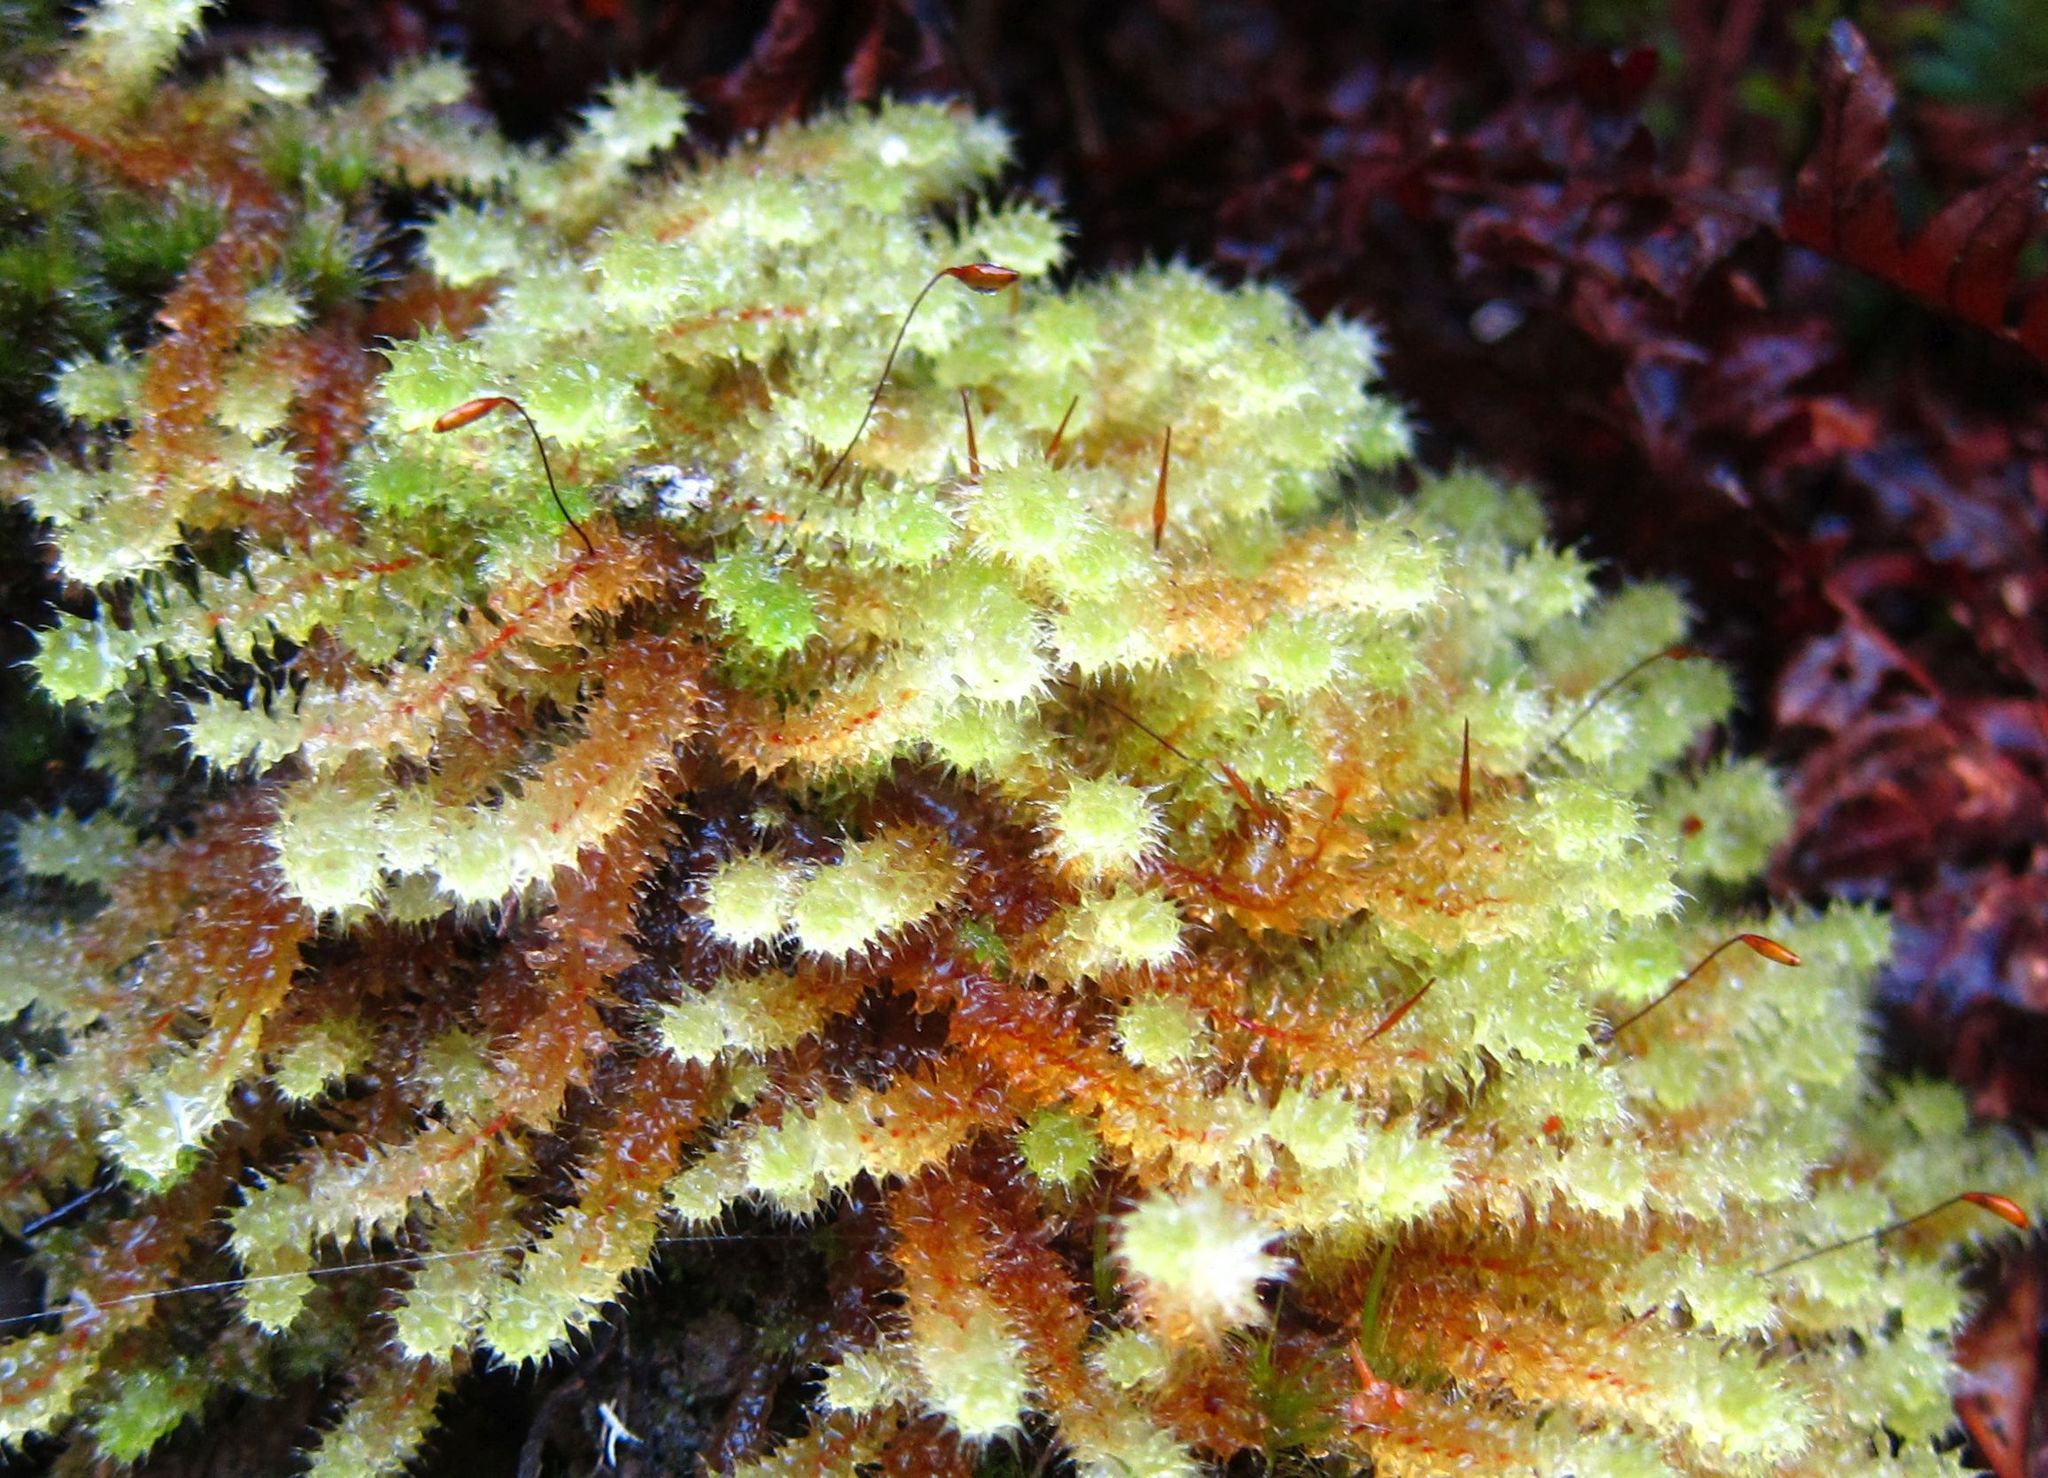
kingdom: Plantae
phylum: Bryophyta
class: Bryopsida
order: Ptychomniales
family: Ptychomniaceae
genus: Ptychomnion
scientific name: Ptychomnion aciculare
